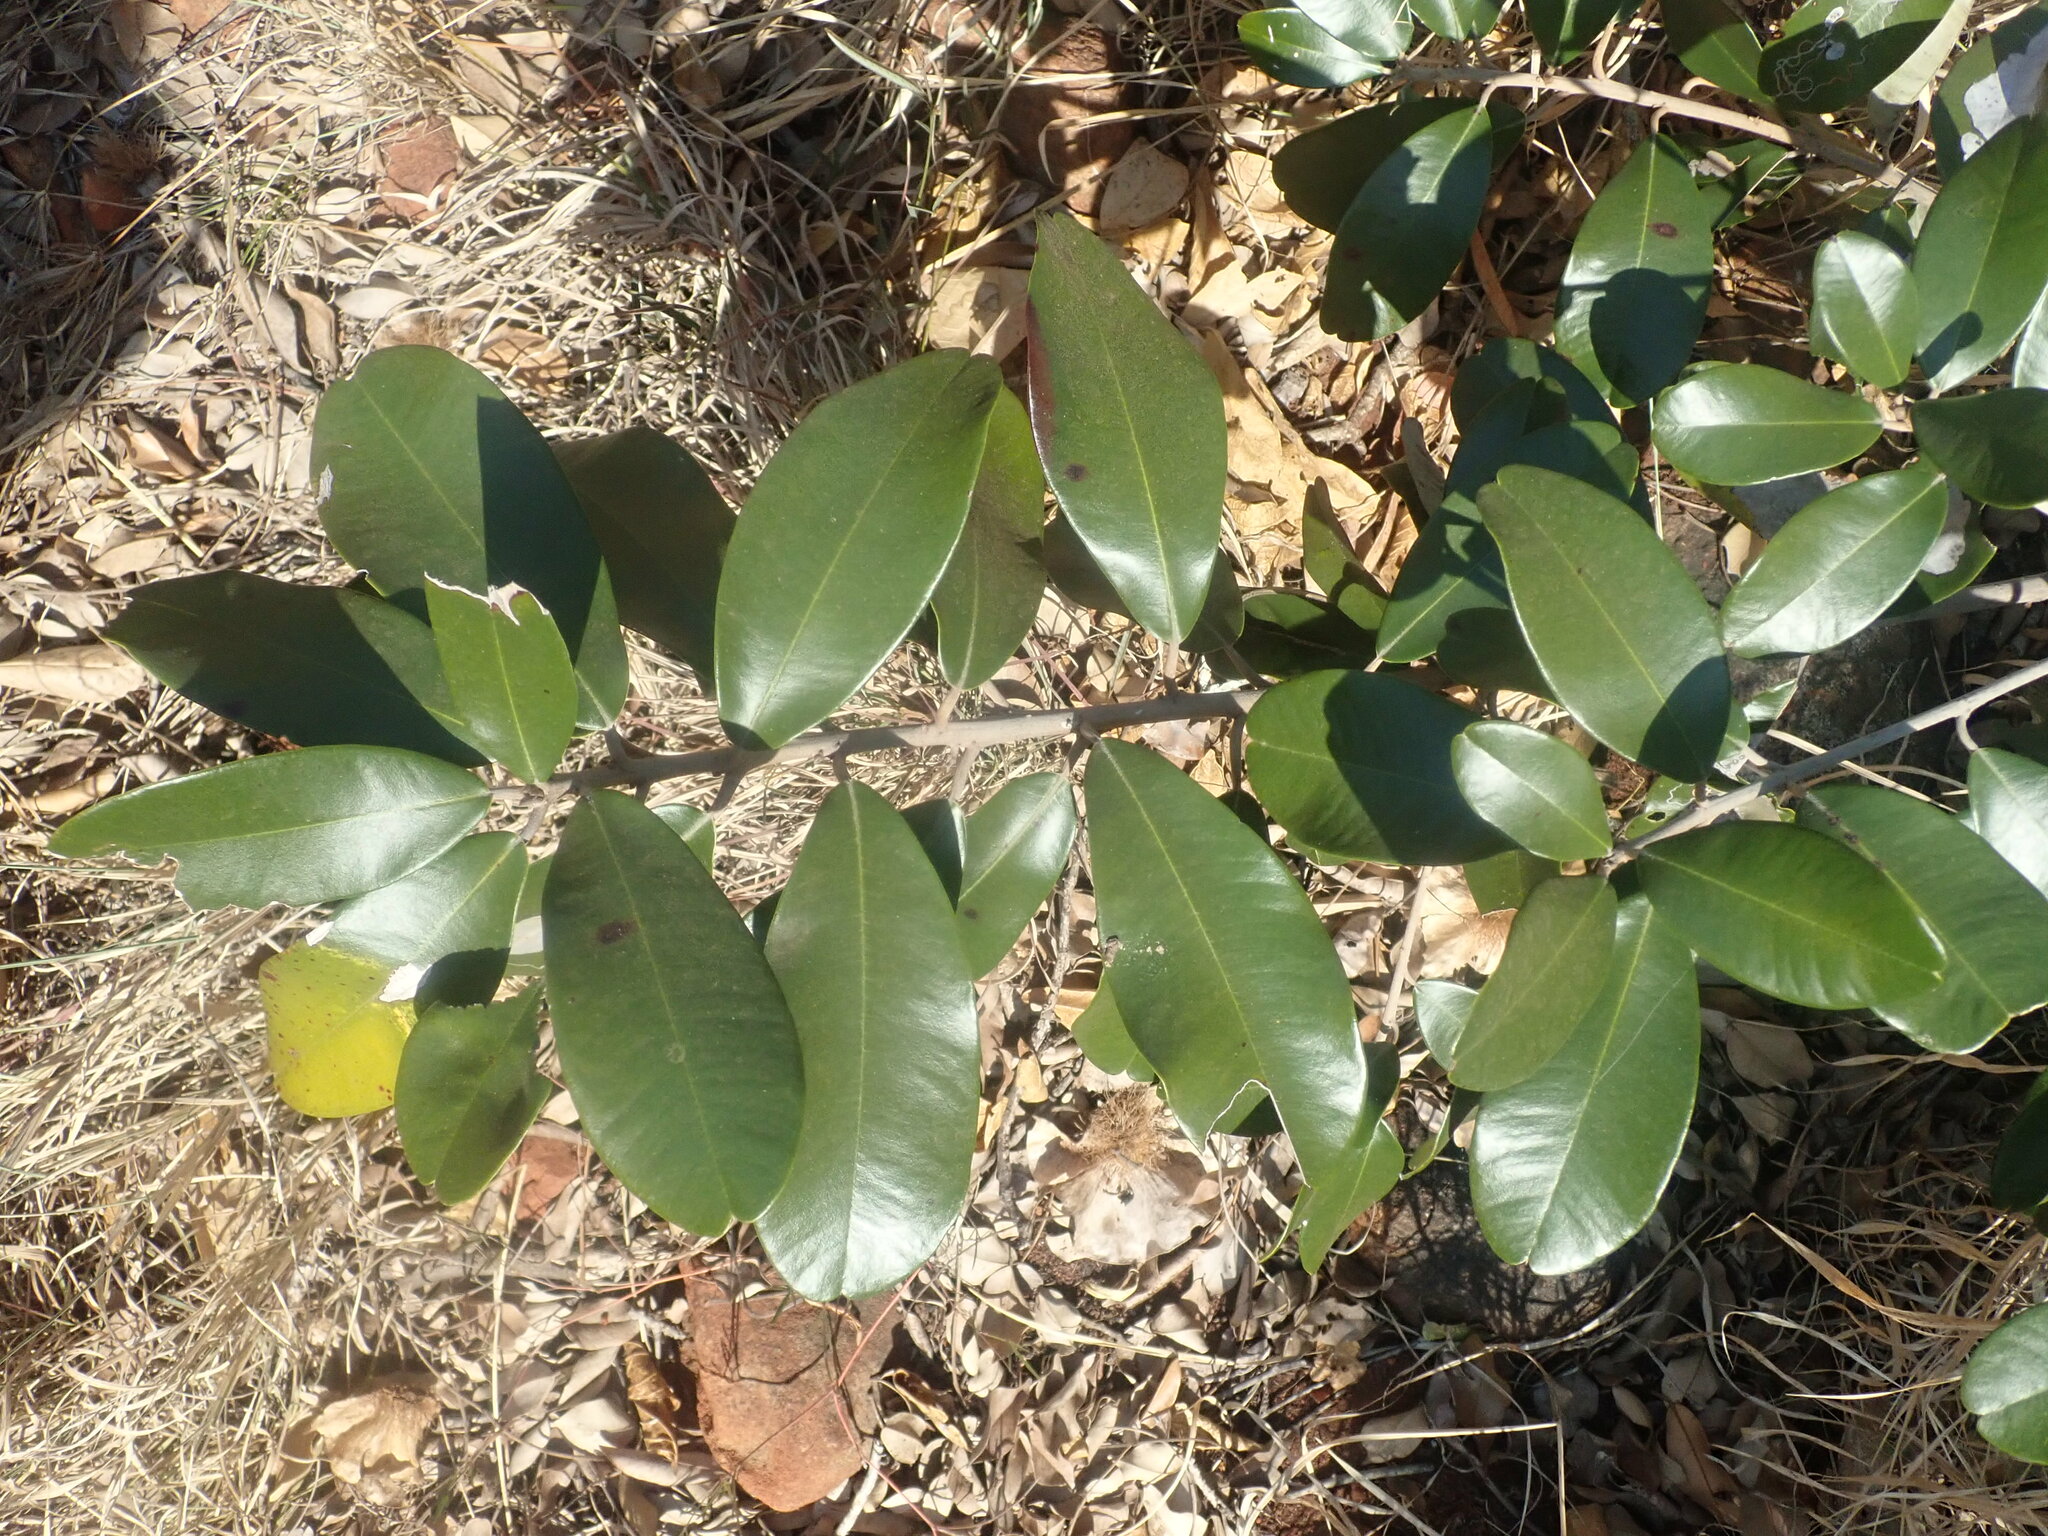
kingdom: Plantae
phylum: Tracheophyta
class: Magnoliopsida
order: Ericales
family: Sapotaceae
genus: Englerophytum
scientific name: Englerophytum magalismontanum
